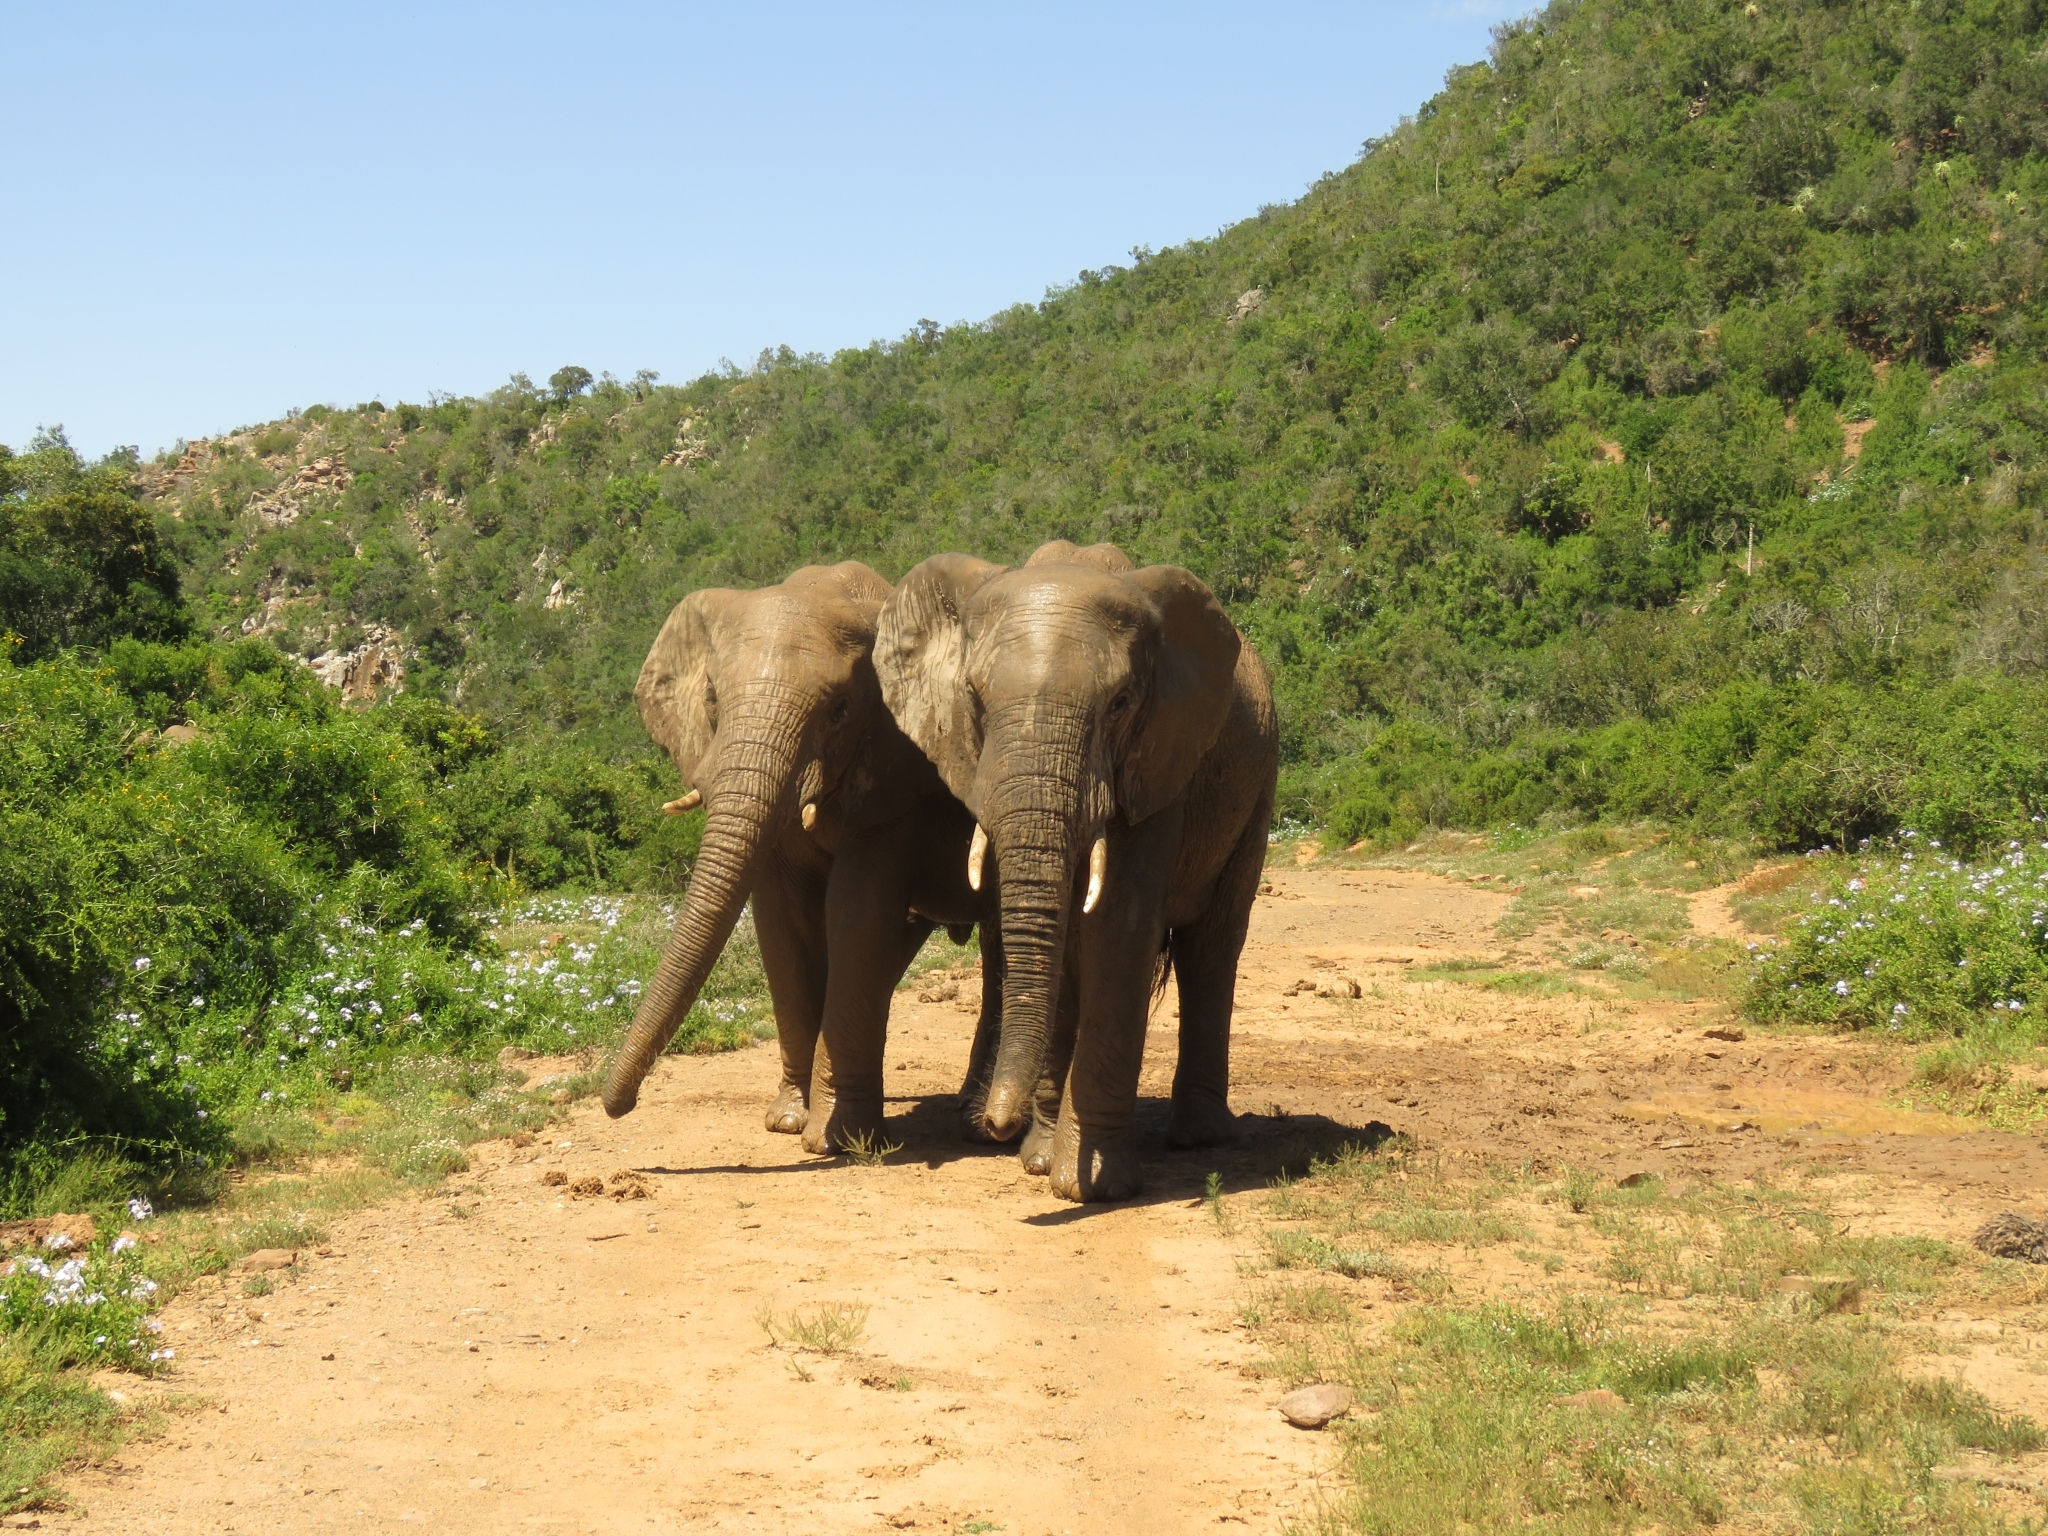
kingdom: Animalia
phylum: Chordata
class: Mammalia
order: Proboscidea
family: Elephantidae
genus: Loxodonta
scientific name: Loxodonta africana
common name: African elephant
